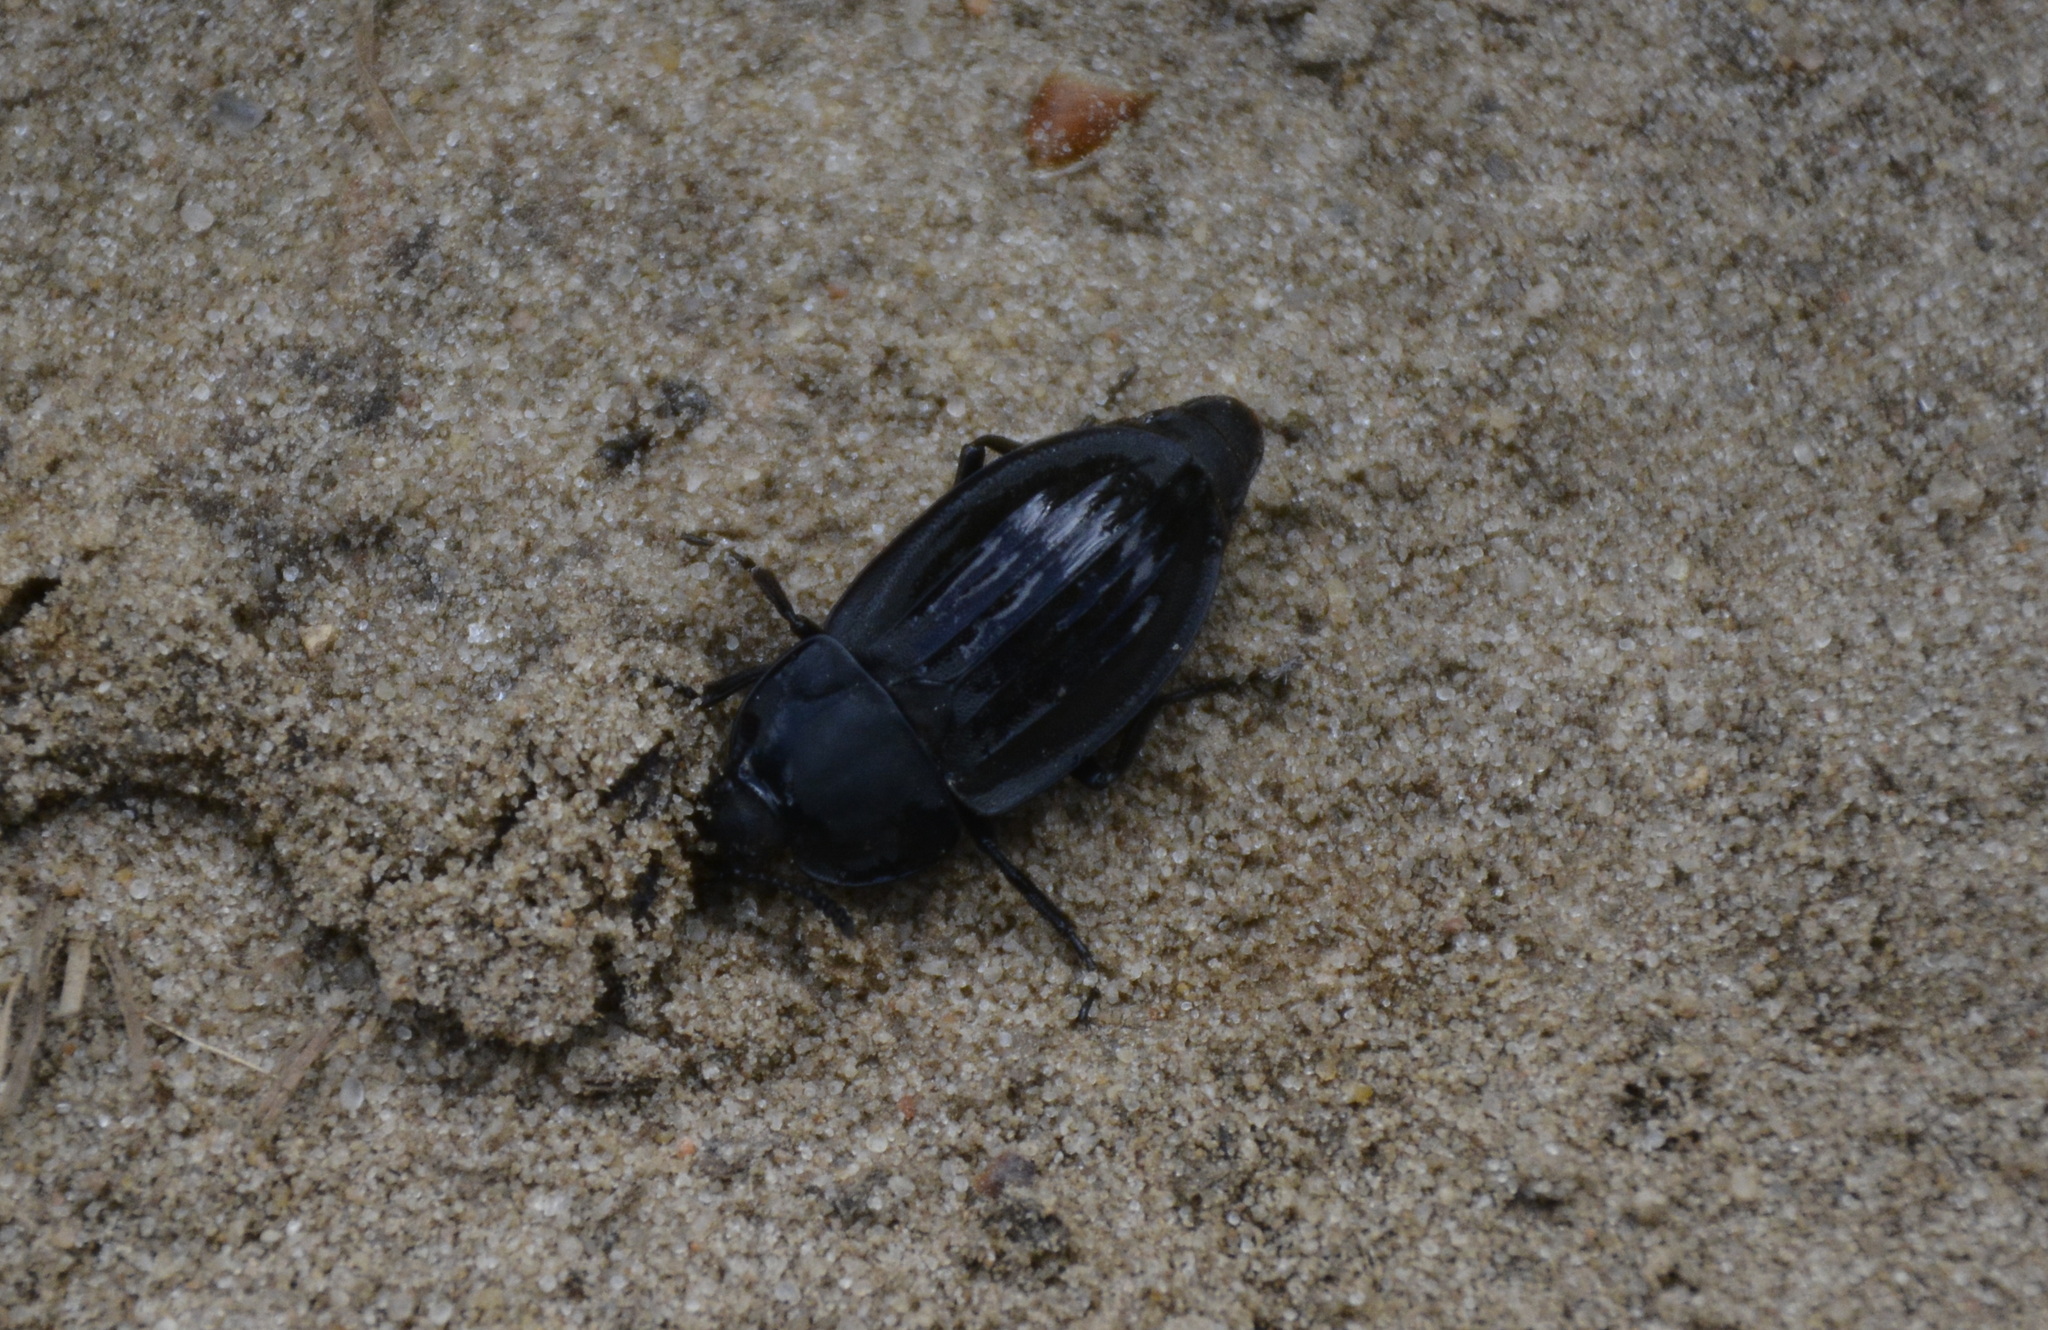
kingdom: Animalia
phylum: Arthropoda
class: Insecta
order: Coleoptera
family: Staphylinidae
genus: Silpha
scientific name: Silpha carinata
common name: Silphid beetle
